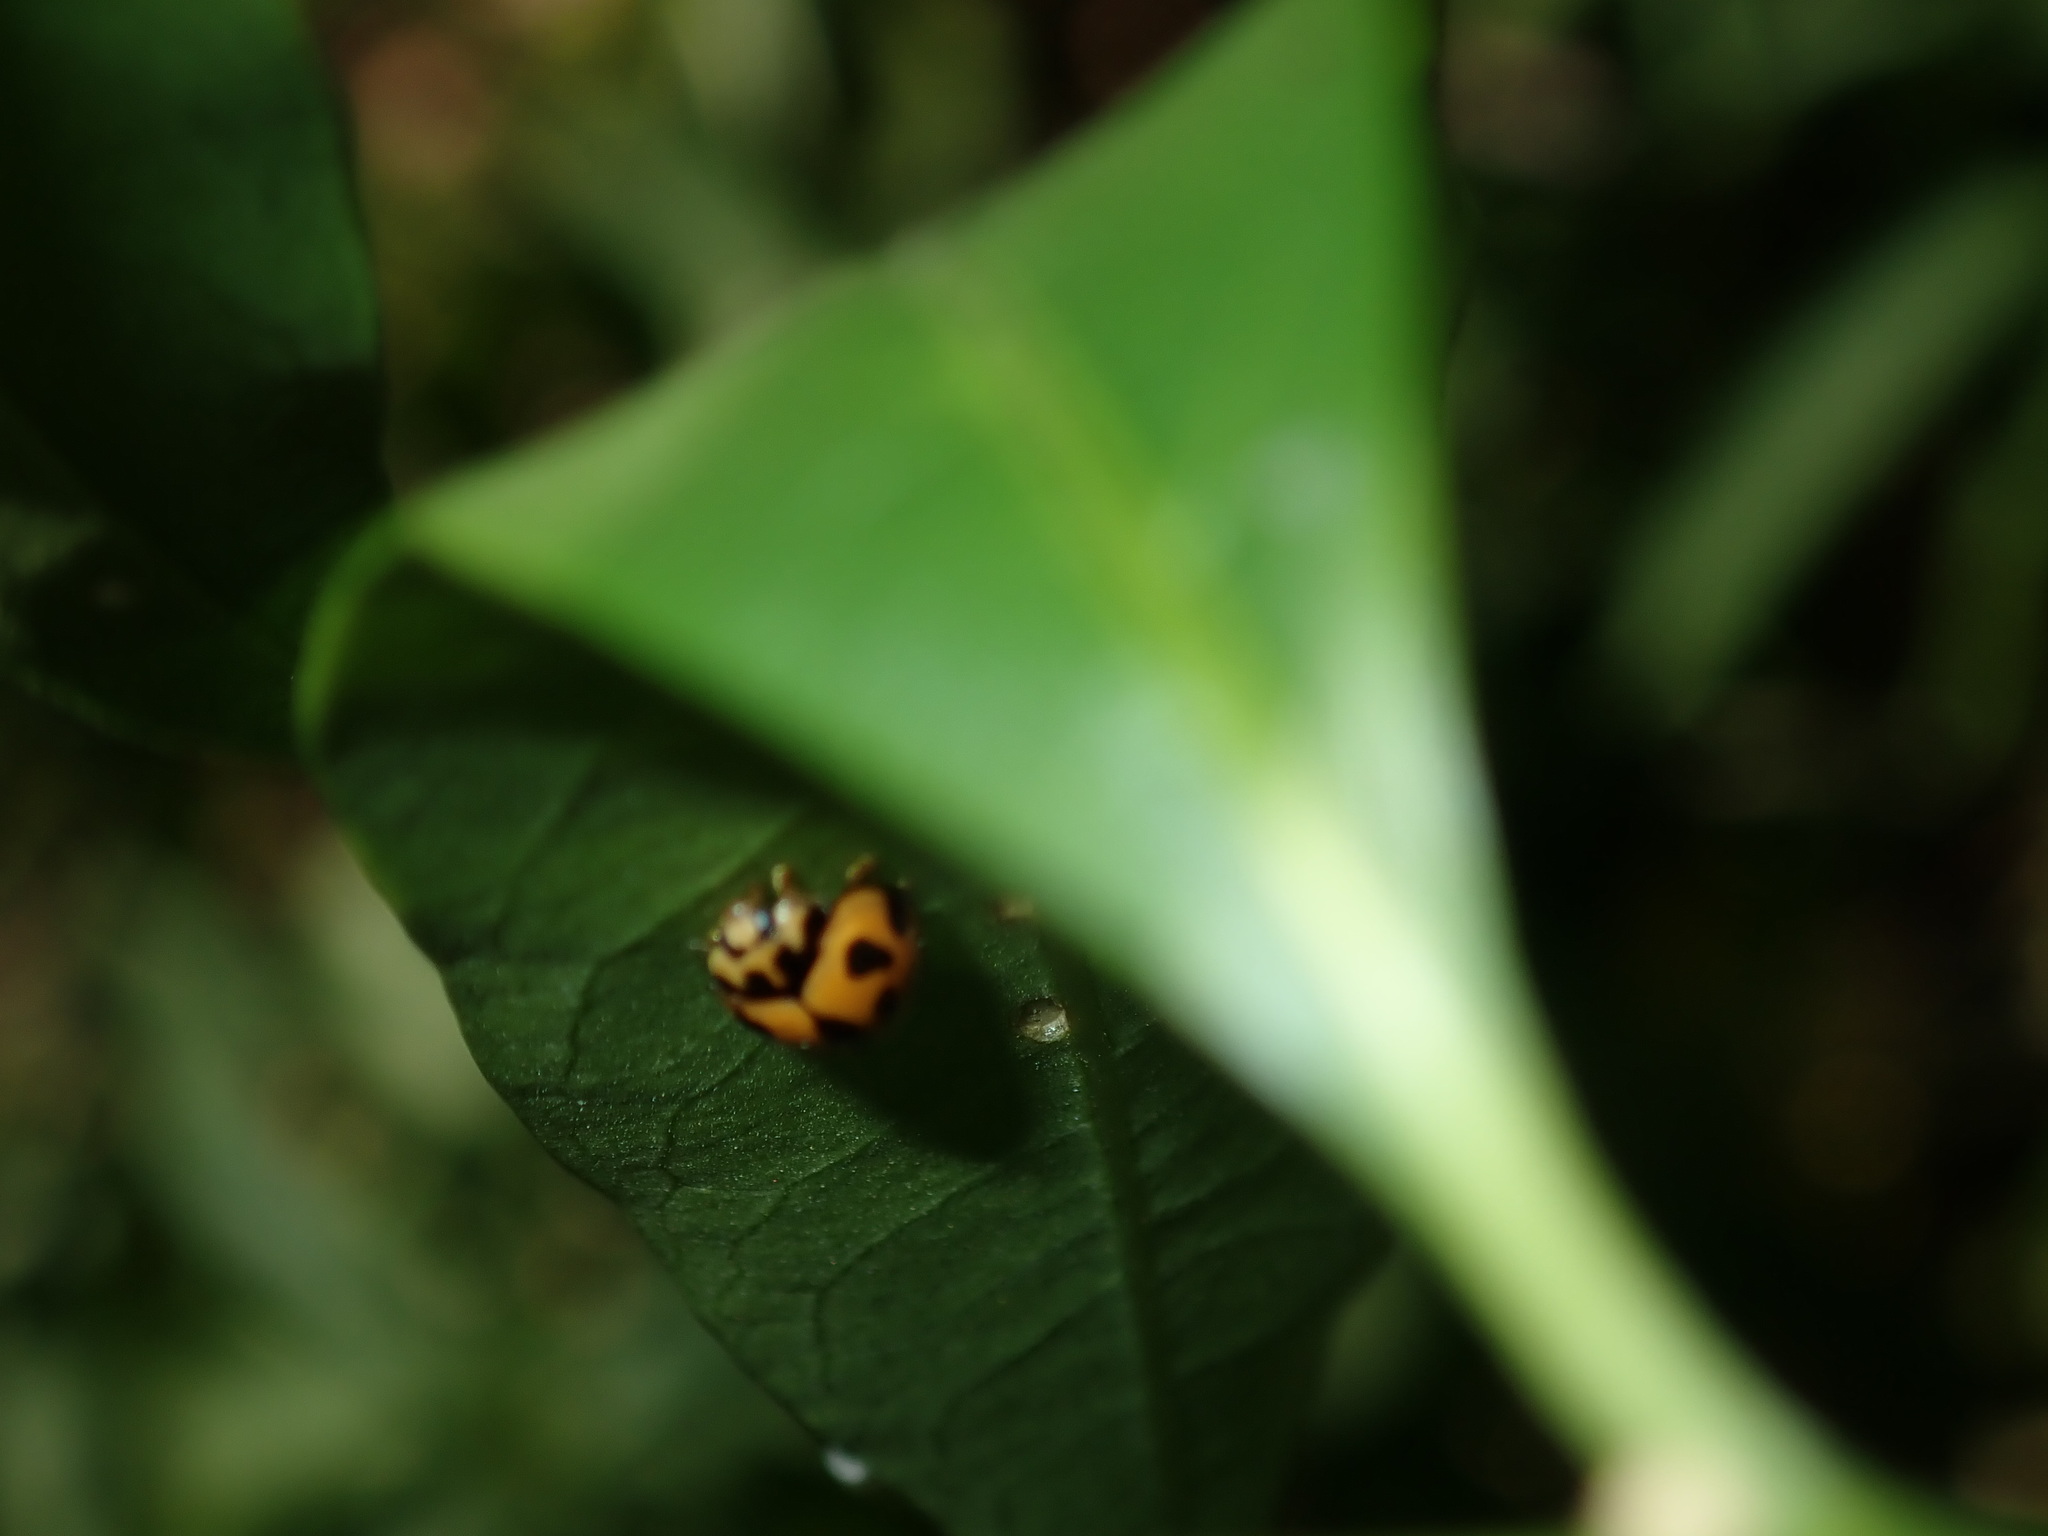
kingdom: Animalia
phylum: Arthropoda
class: Insecta
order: Coleoptera
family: Coccinellidae
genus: Coelophora
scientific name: Coelophora inaequalis
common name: Common australian lady beetle
